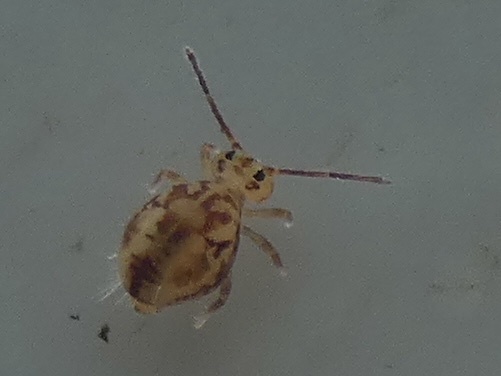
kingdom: Animalia
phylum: Arthropoda
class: Collembola
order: Symphypleona
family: Dicyrtomidae
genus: Dicyrtomina
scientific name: Dicyrtomina saundersi
